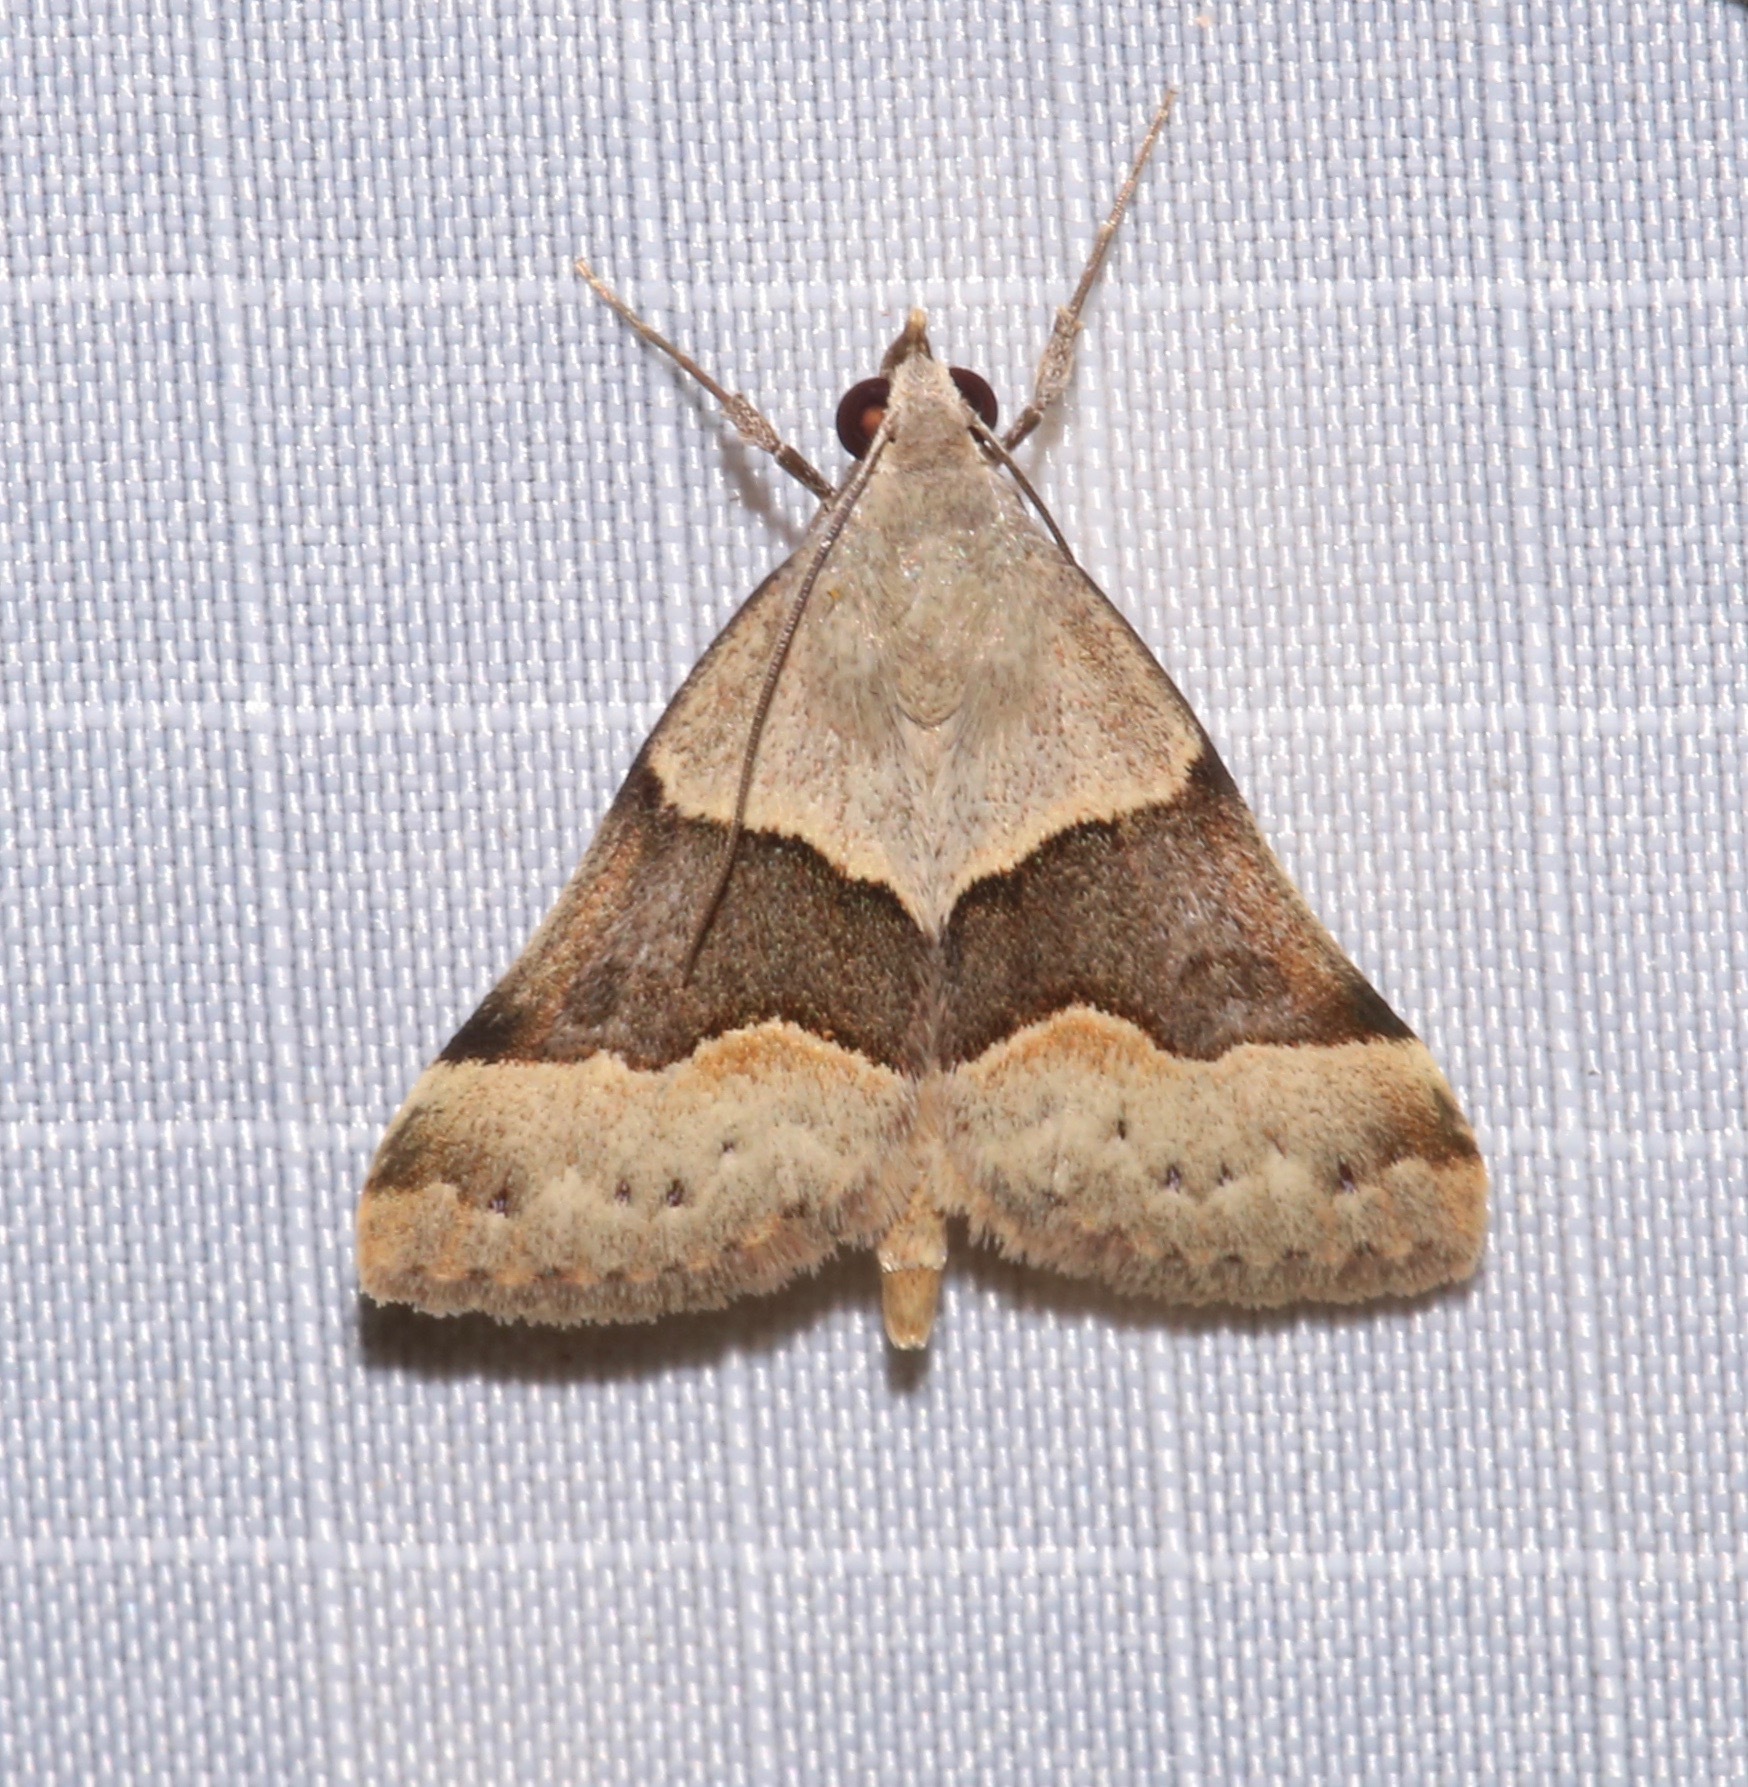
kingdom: Animalia
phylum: Arthropoda
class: Insecta
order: Lepidoptera
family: Erebidae
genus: Hemeroplanis
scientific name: Hemeroplanis incusalis
